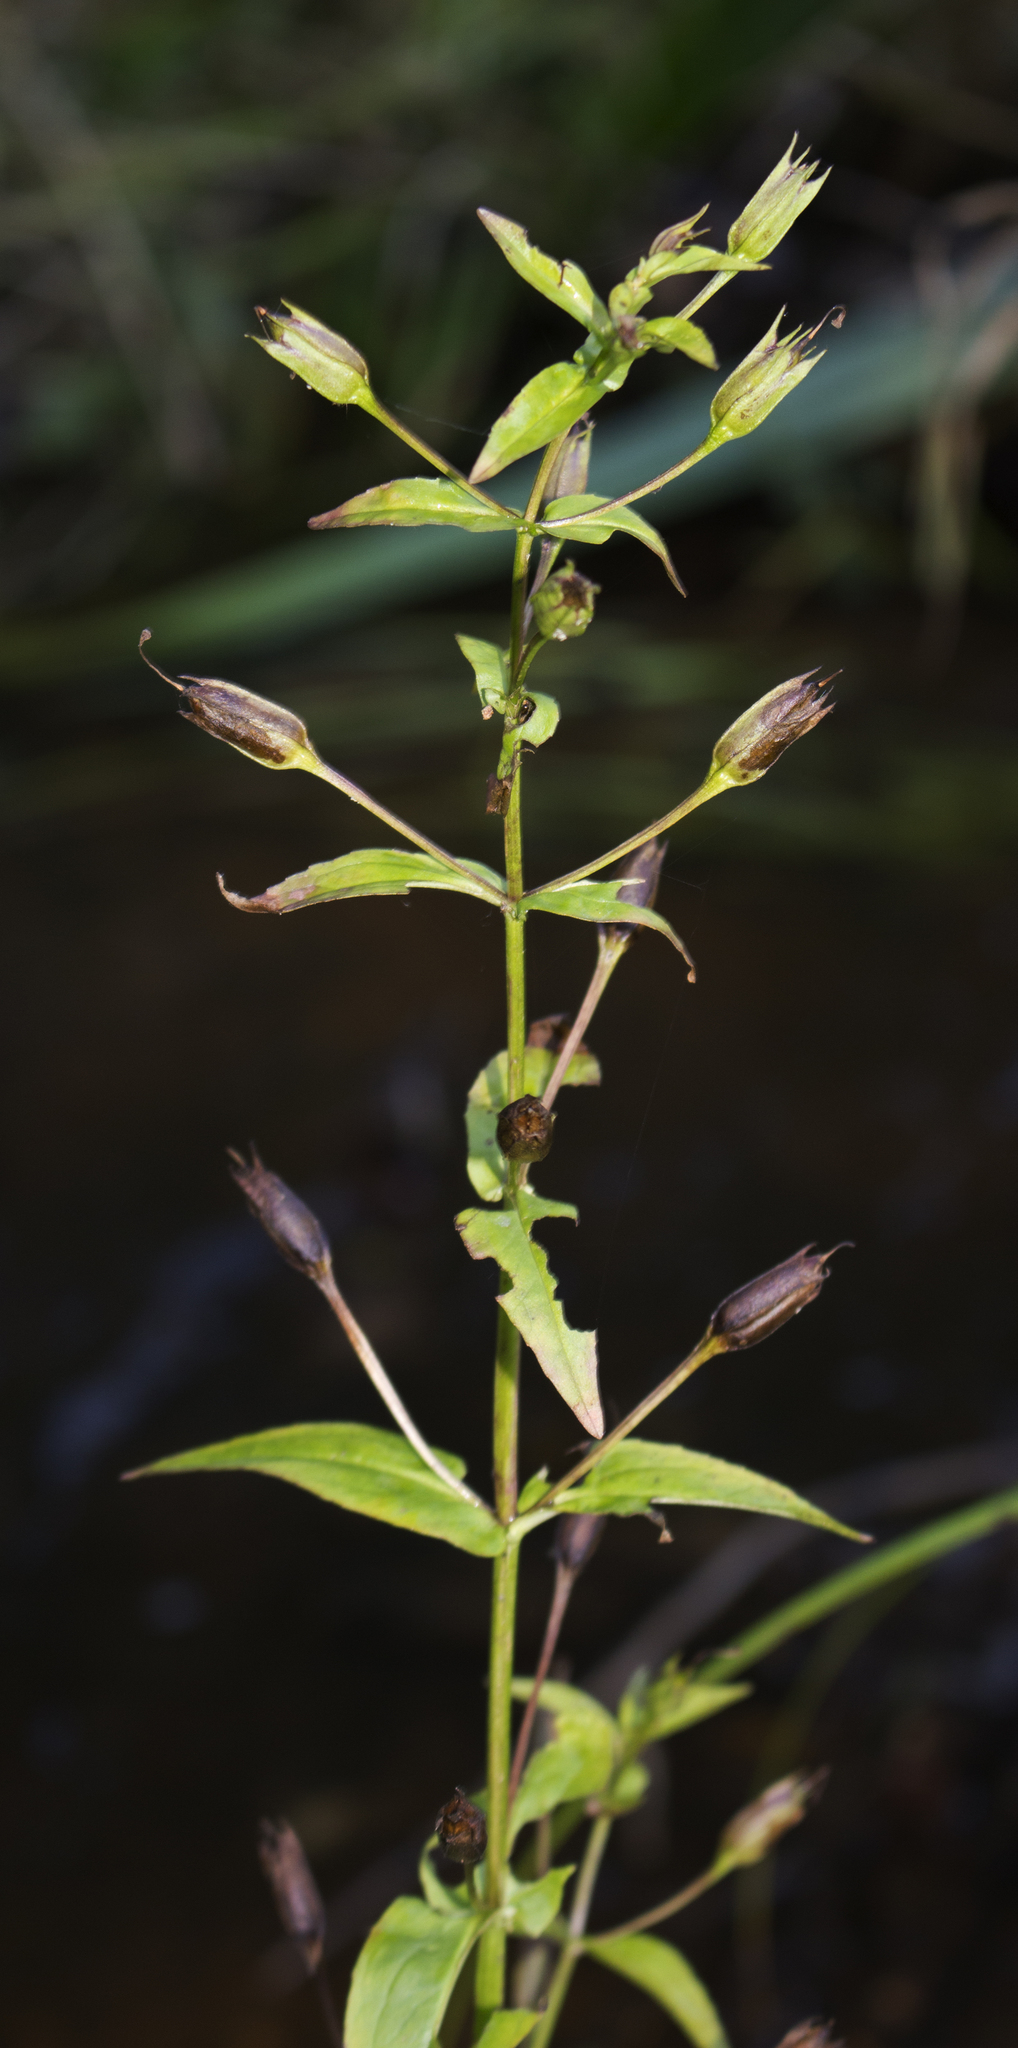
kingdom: Plantae
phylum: Tracheophyta
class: Magnoliopsida
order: Lamiales
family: Phrymaceae
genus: Mimulus
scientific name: Mimulus ringens
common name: Allegheny monkeyflower
